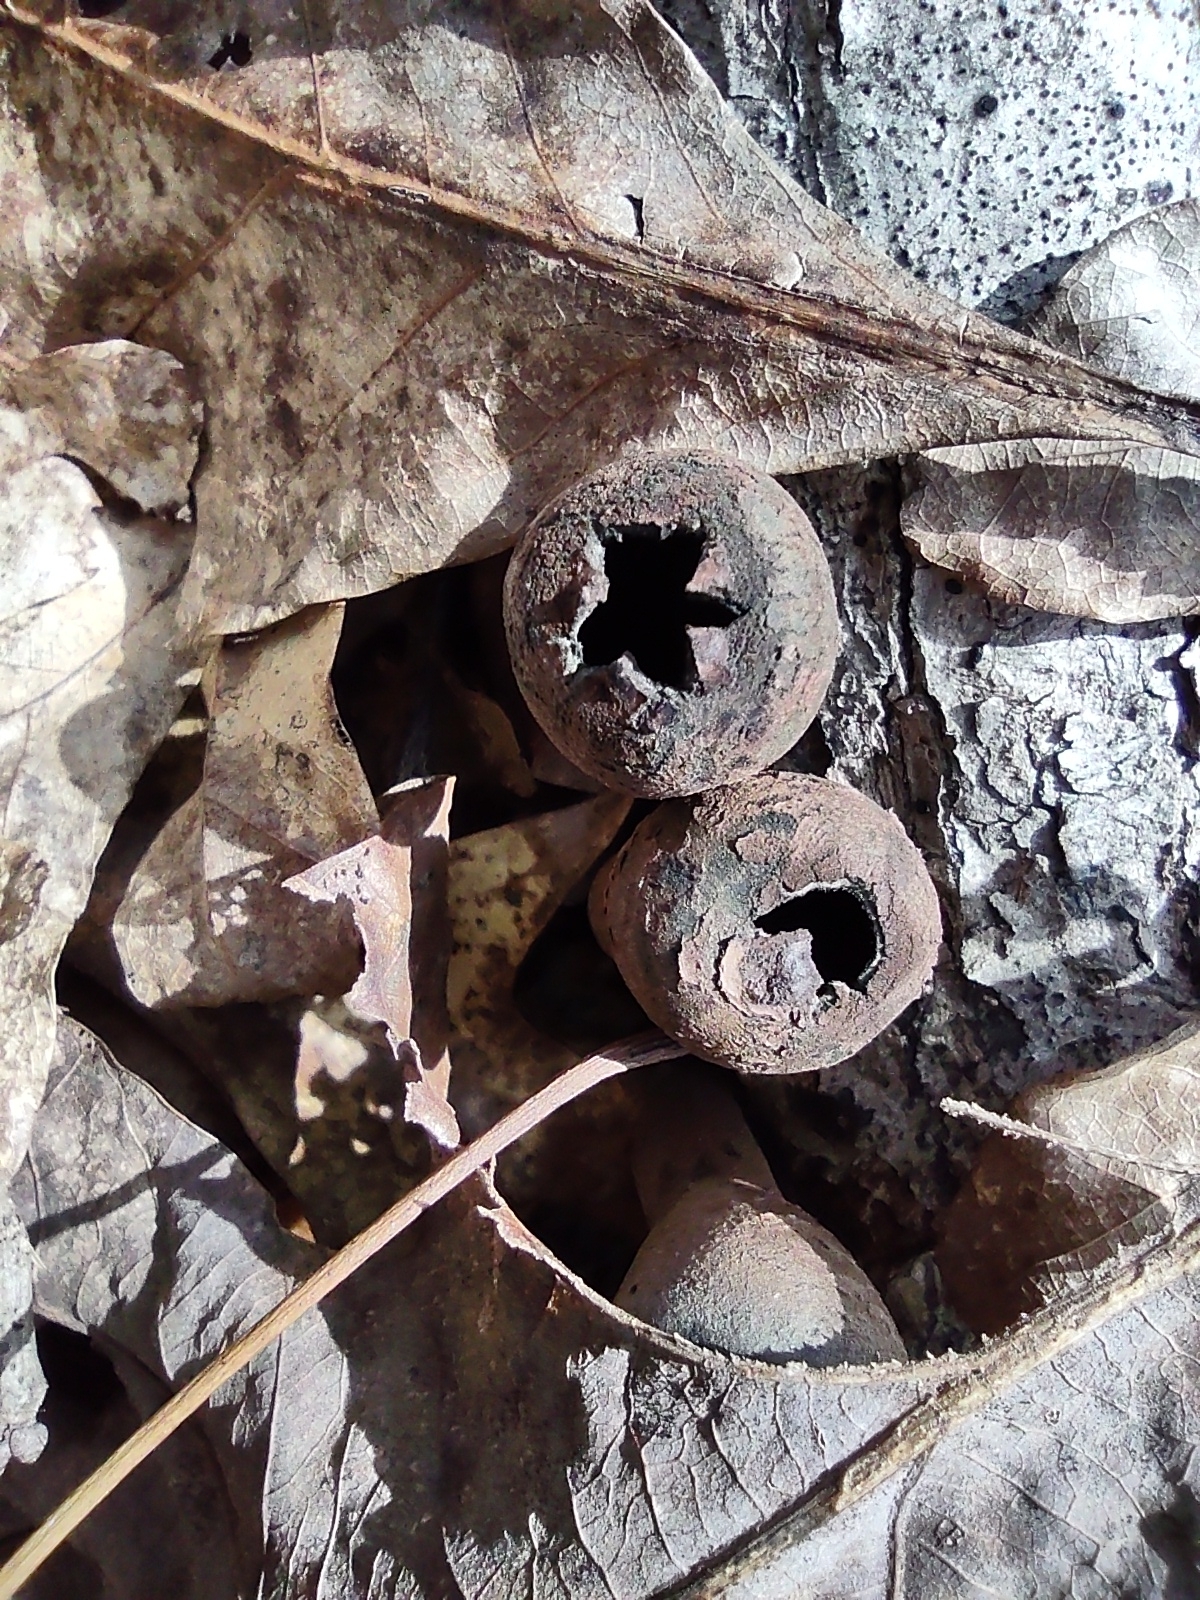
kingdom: Fungi
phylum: Ascomycota
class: Pezizomycetes
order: Pezizales
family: Sarcosomataceae
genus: Urnula
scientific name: Urnula craterium
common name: Devil's urn
